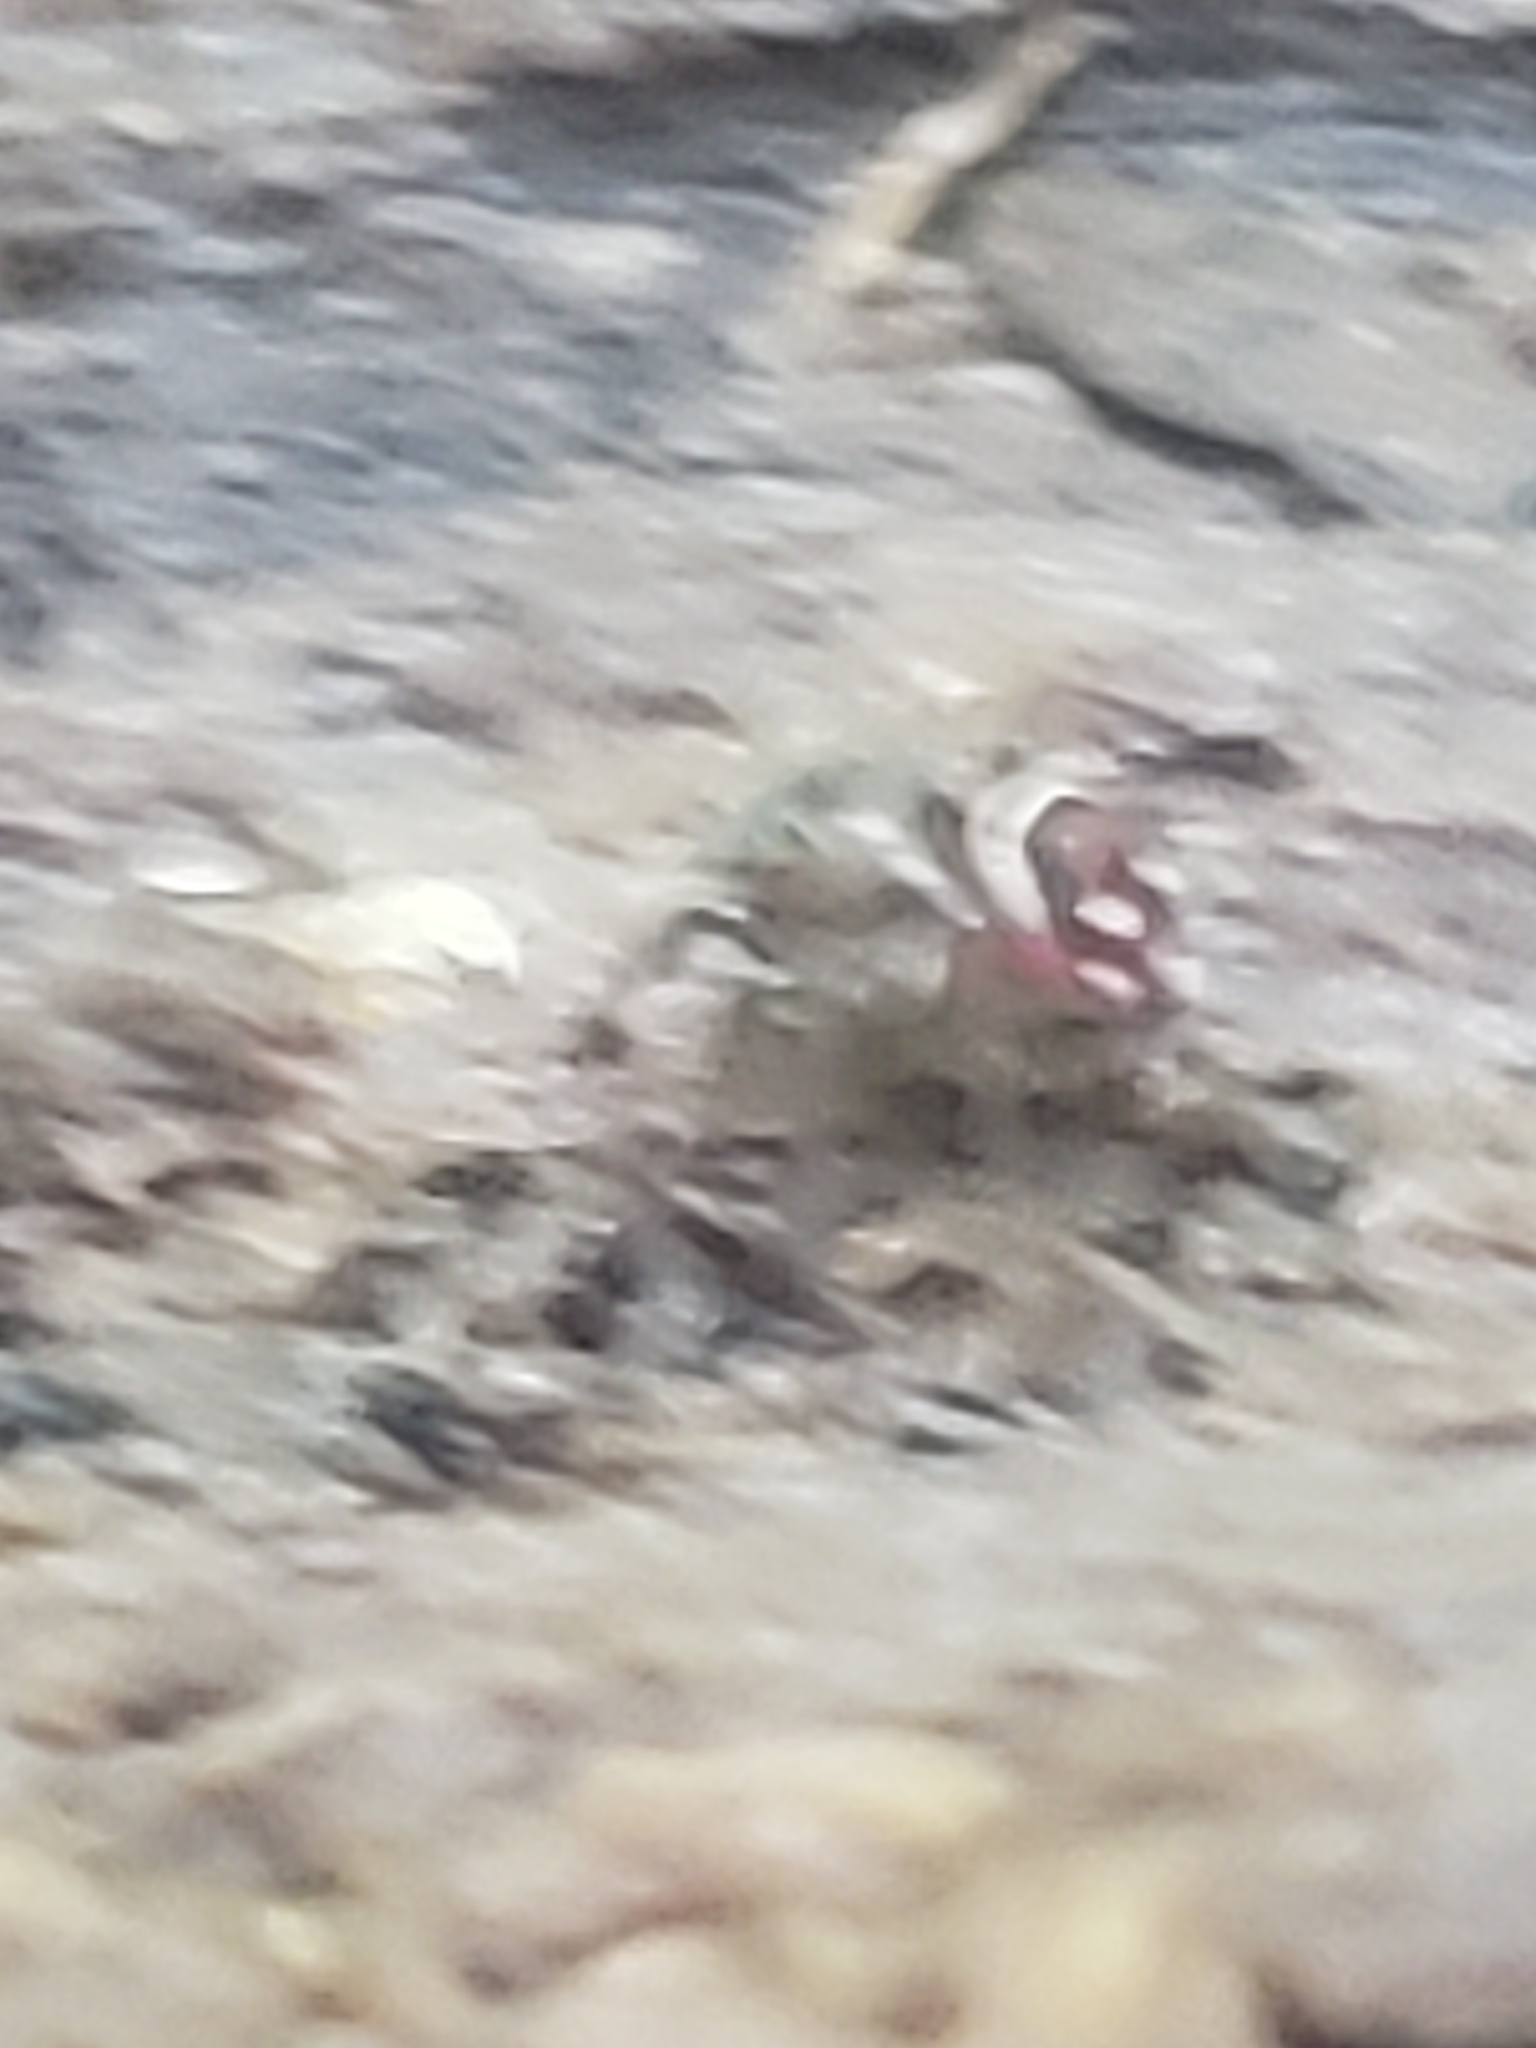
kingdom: Animalia
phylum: Arthropoda
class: Arachnida
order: Araneae
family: Salticidae
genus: Chinattus
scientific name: Chinattus parvulus
